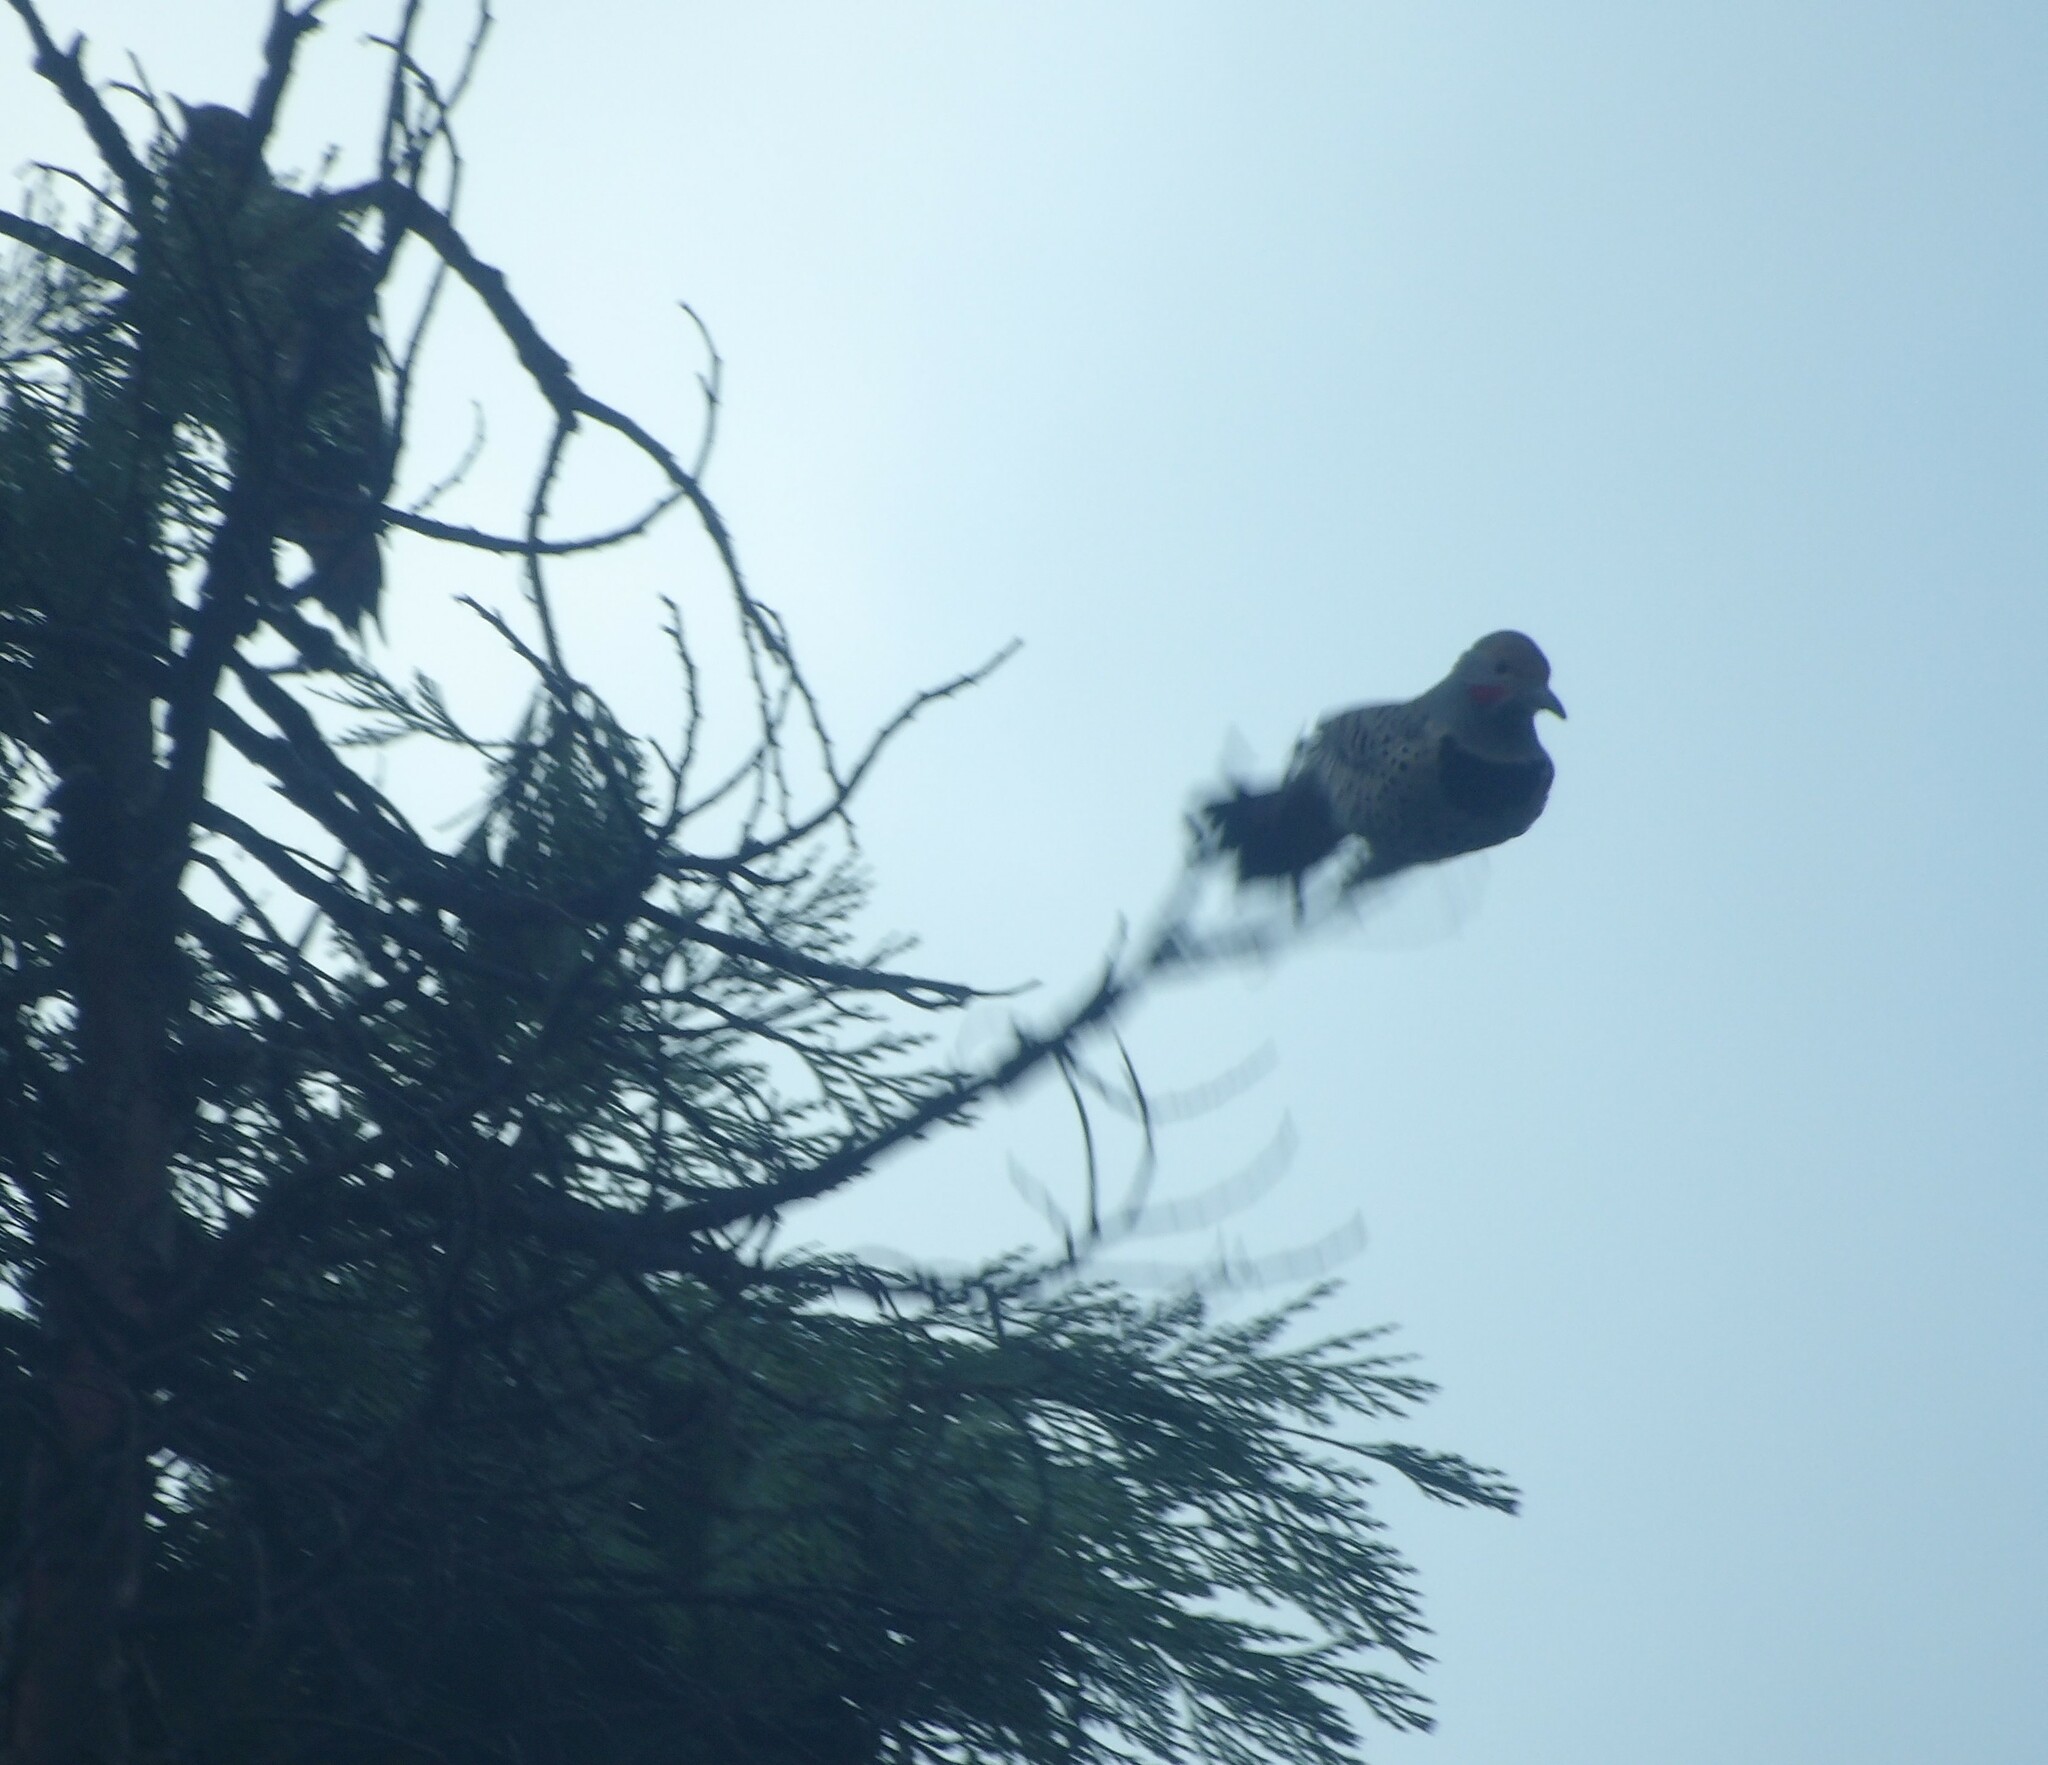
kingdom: Animalia
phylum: Chordata
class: Aves
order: Piciformes
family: Picidae
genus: Colaptes
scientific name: Colaptes auratus
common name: Northern flicker
